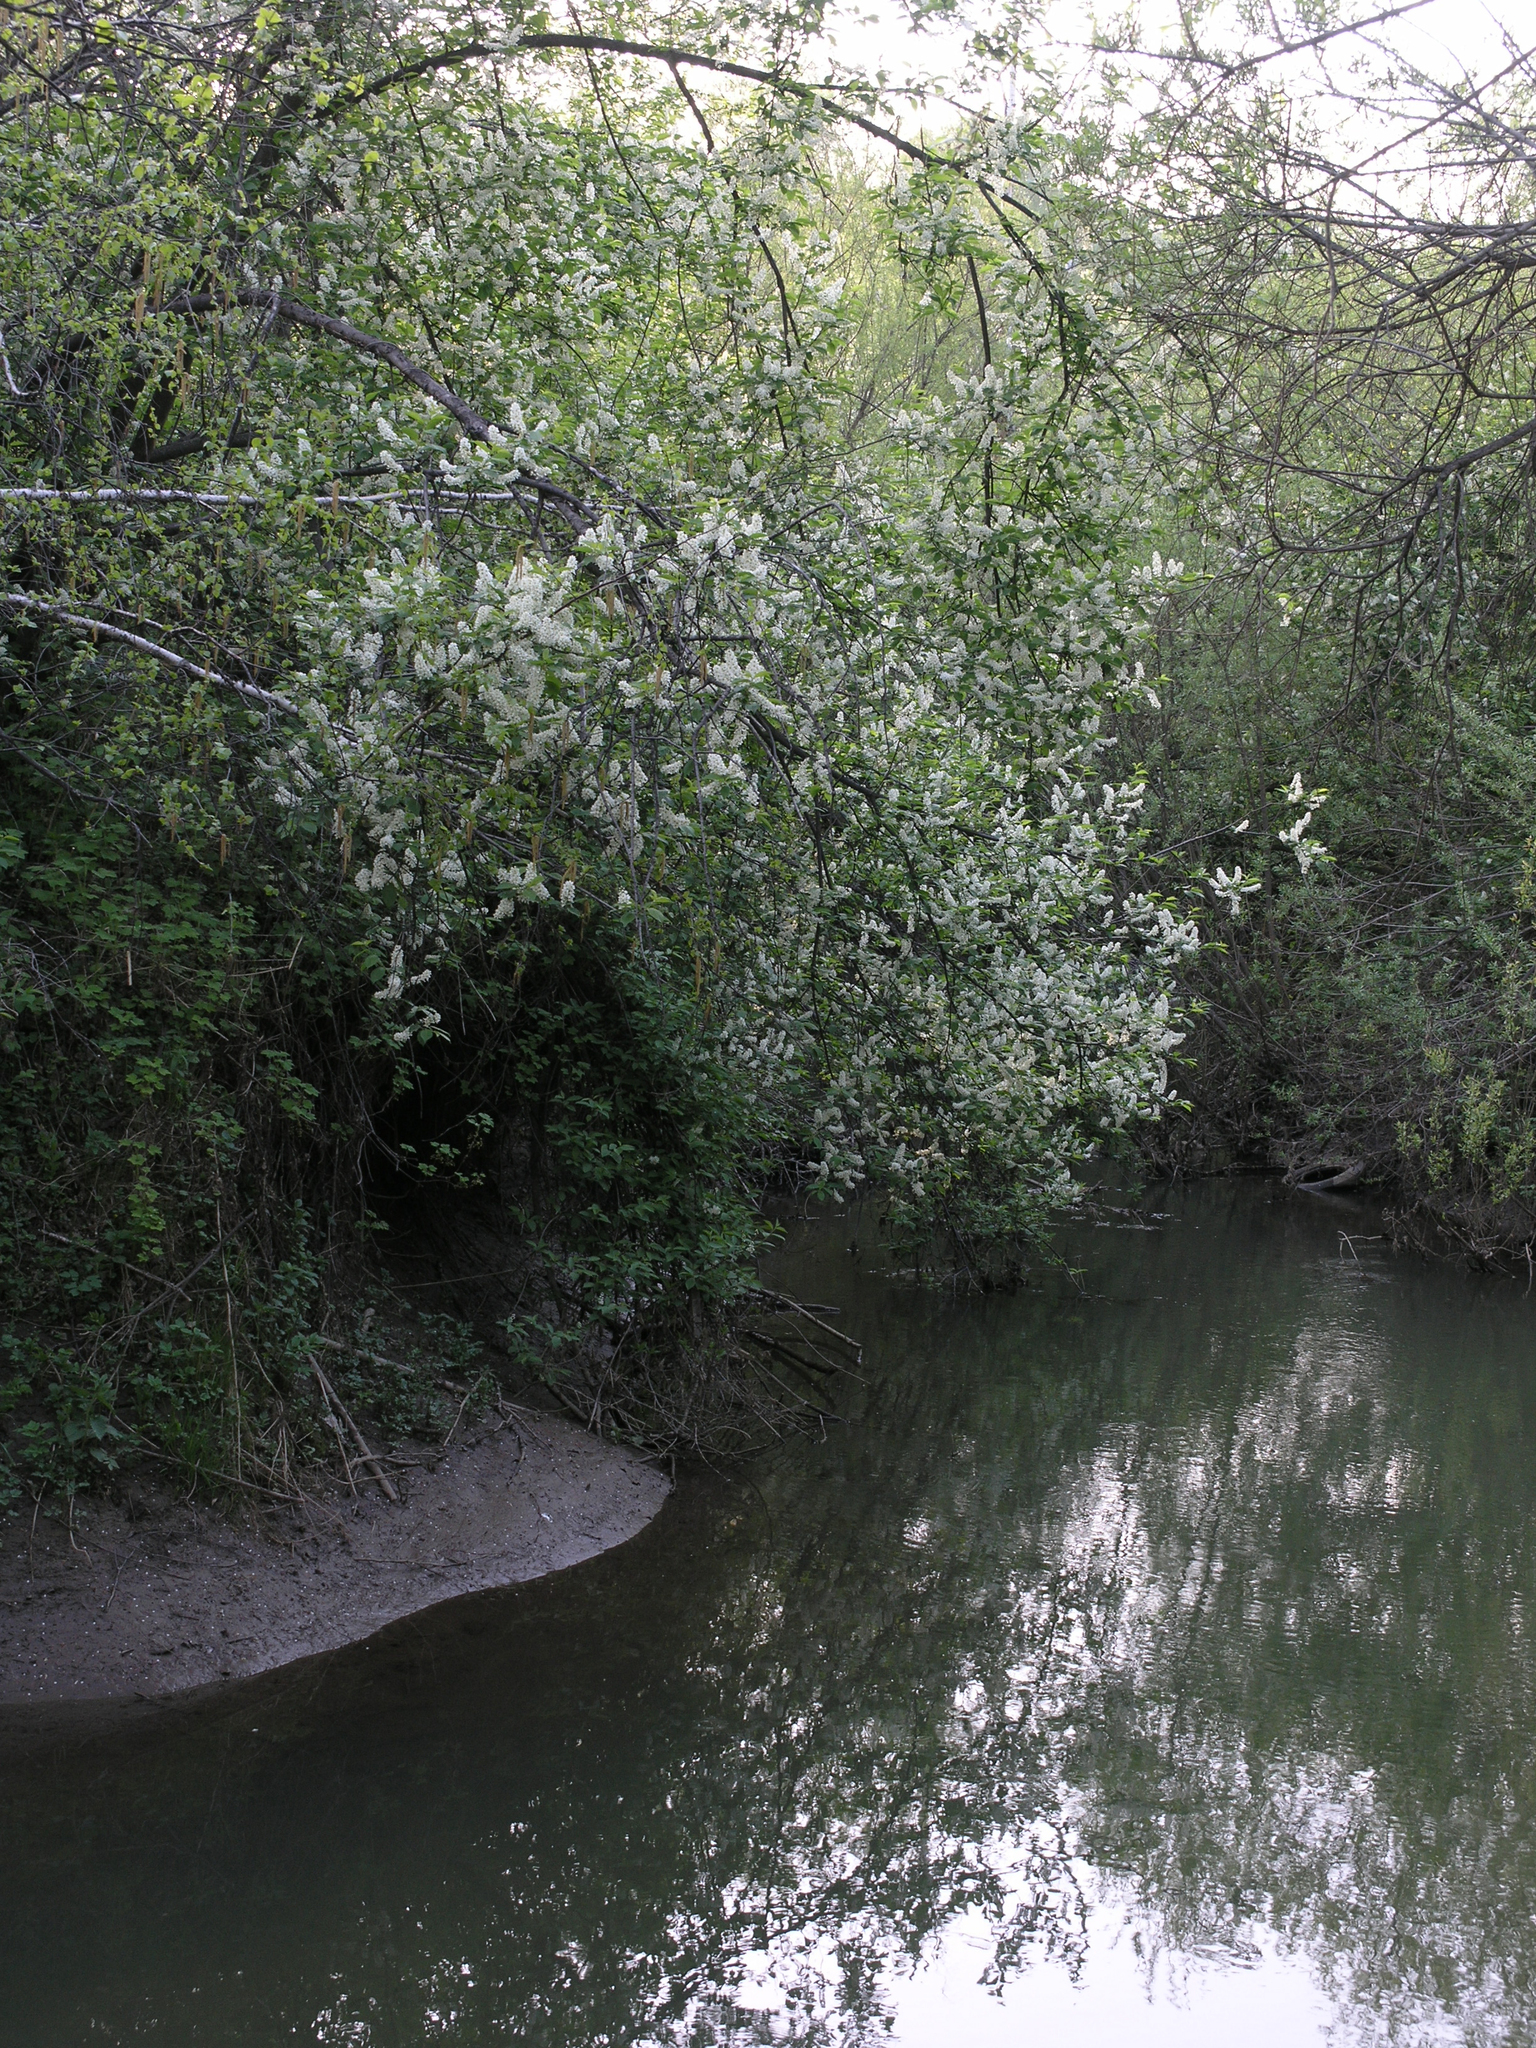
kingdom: Plantae
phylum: Tracheophyta
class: Magnoliopsida
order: Rosales
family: Rosaceae
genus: Prunus
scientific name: Prunus padus
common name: Bird cherry
